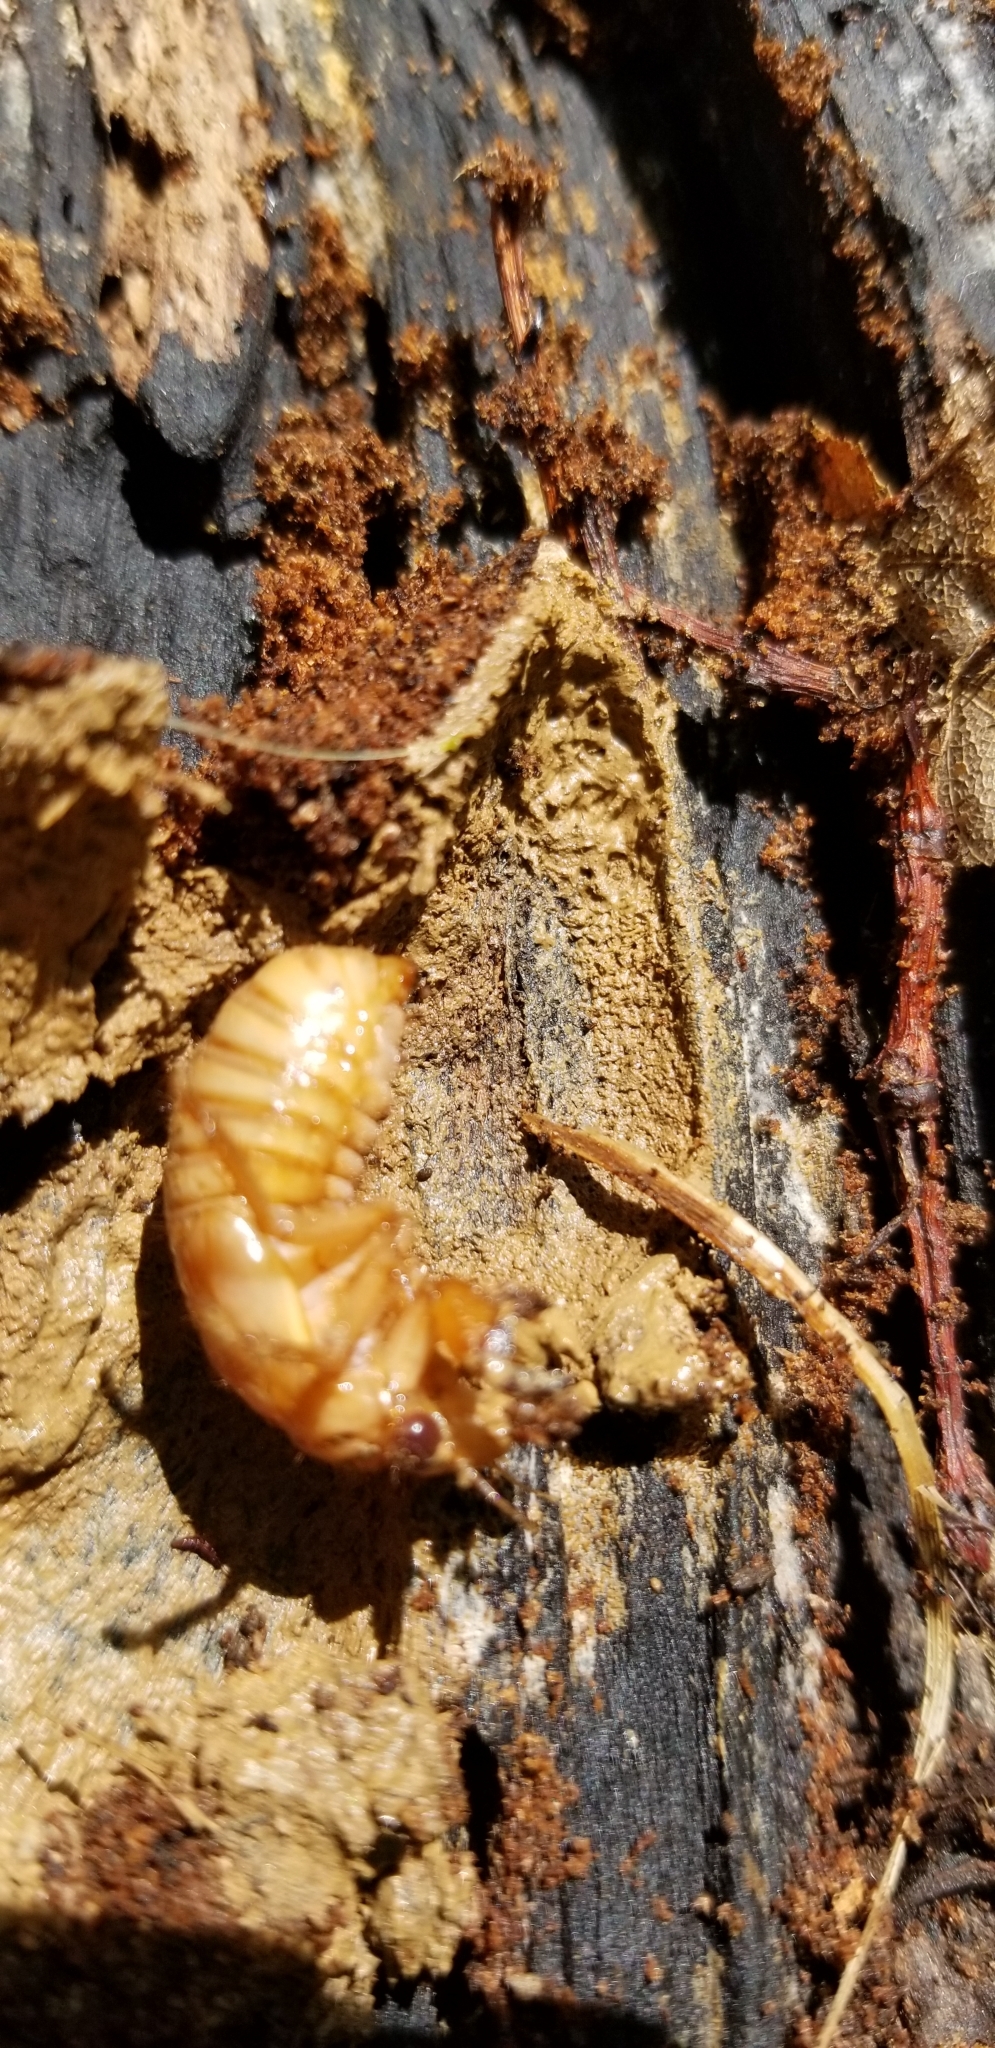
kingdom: Animalia
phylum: Arthropoda
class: Insecta
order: Hemiptera
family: Cicadidae
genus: Magicicada
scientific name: Magicicada
